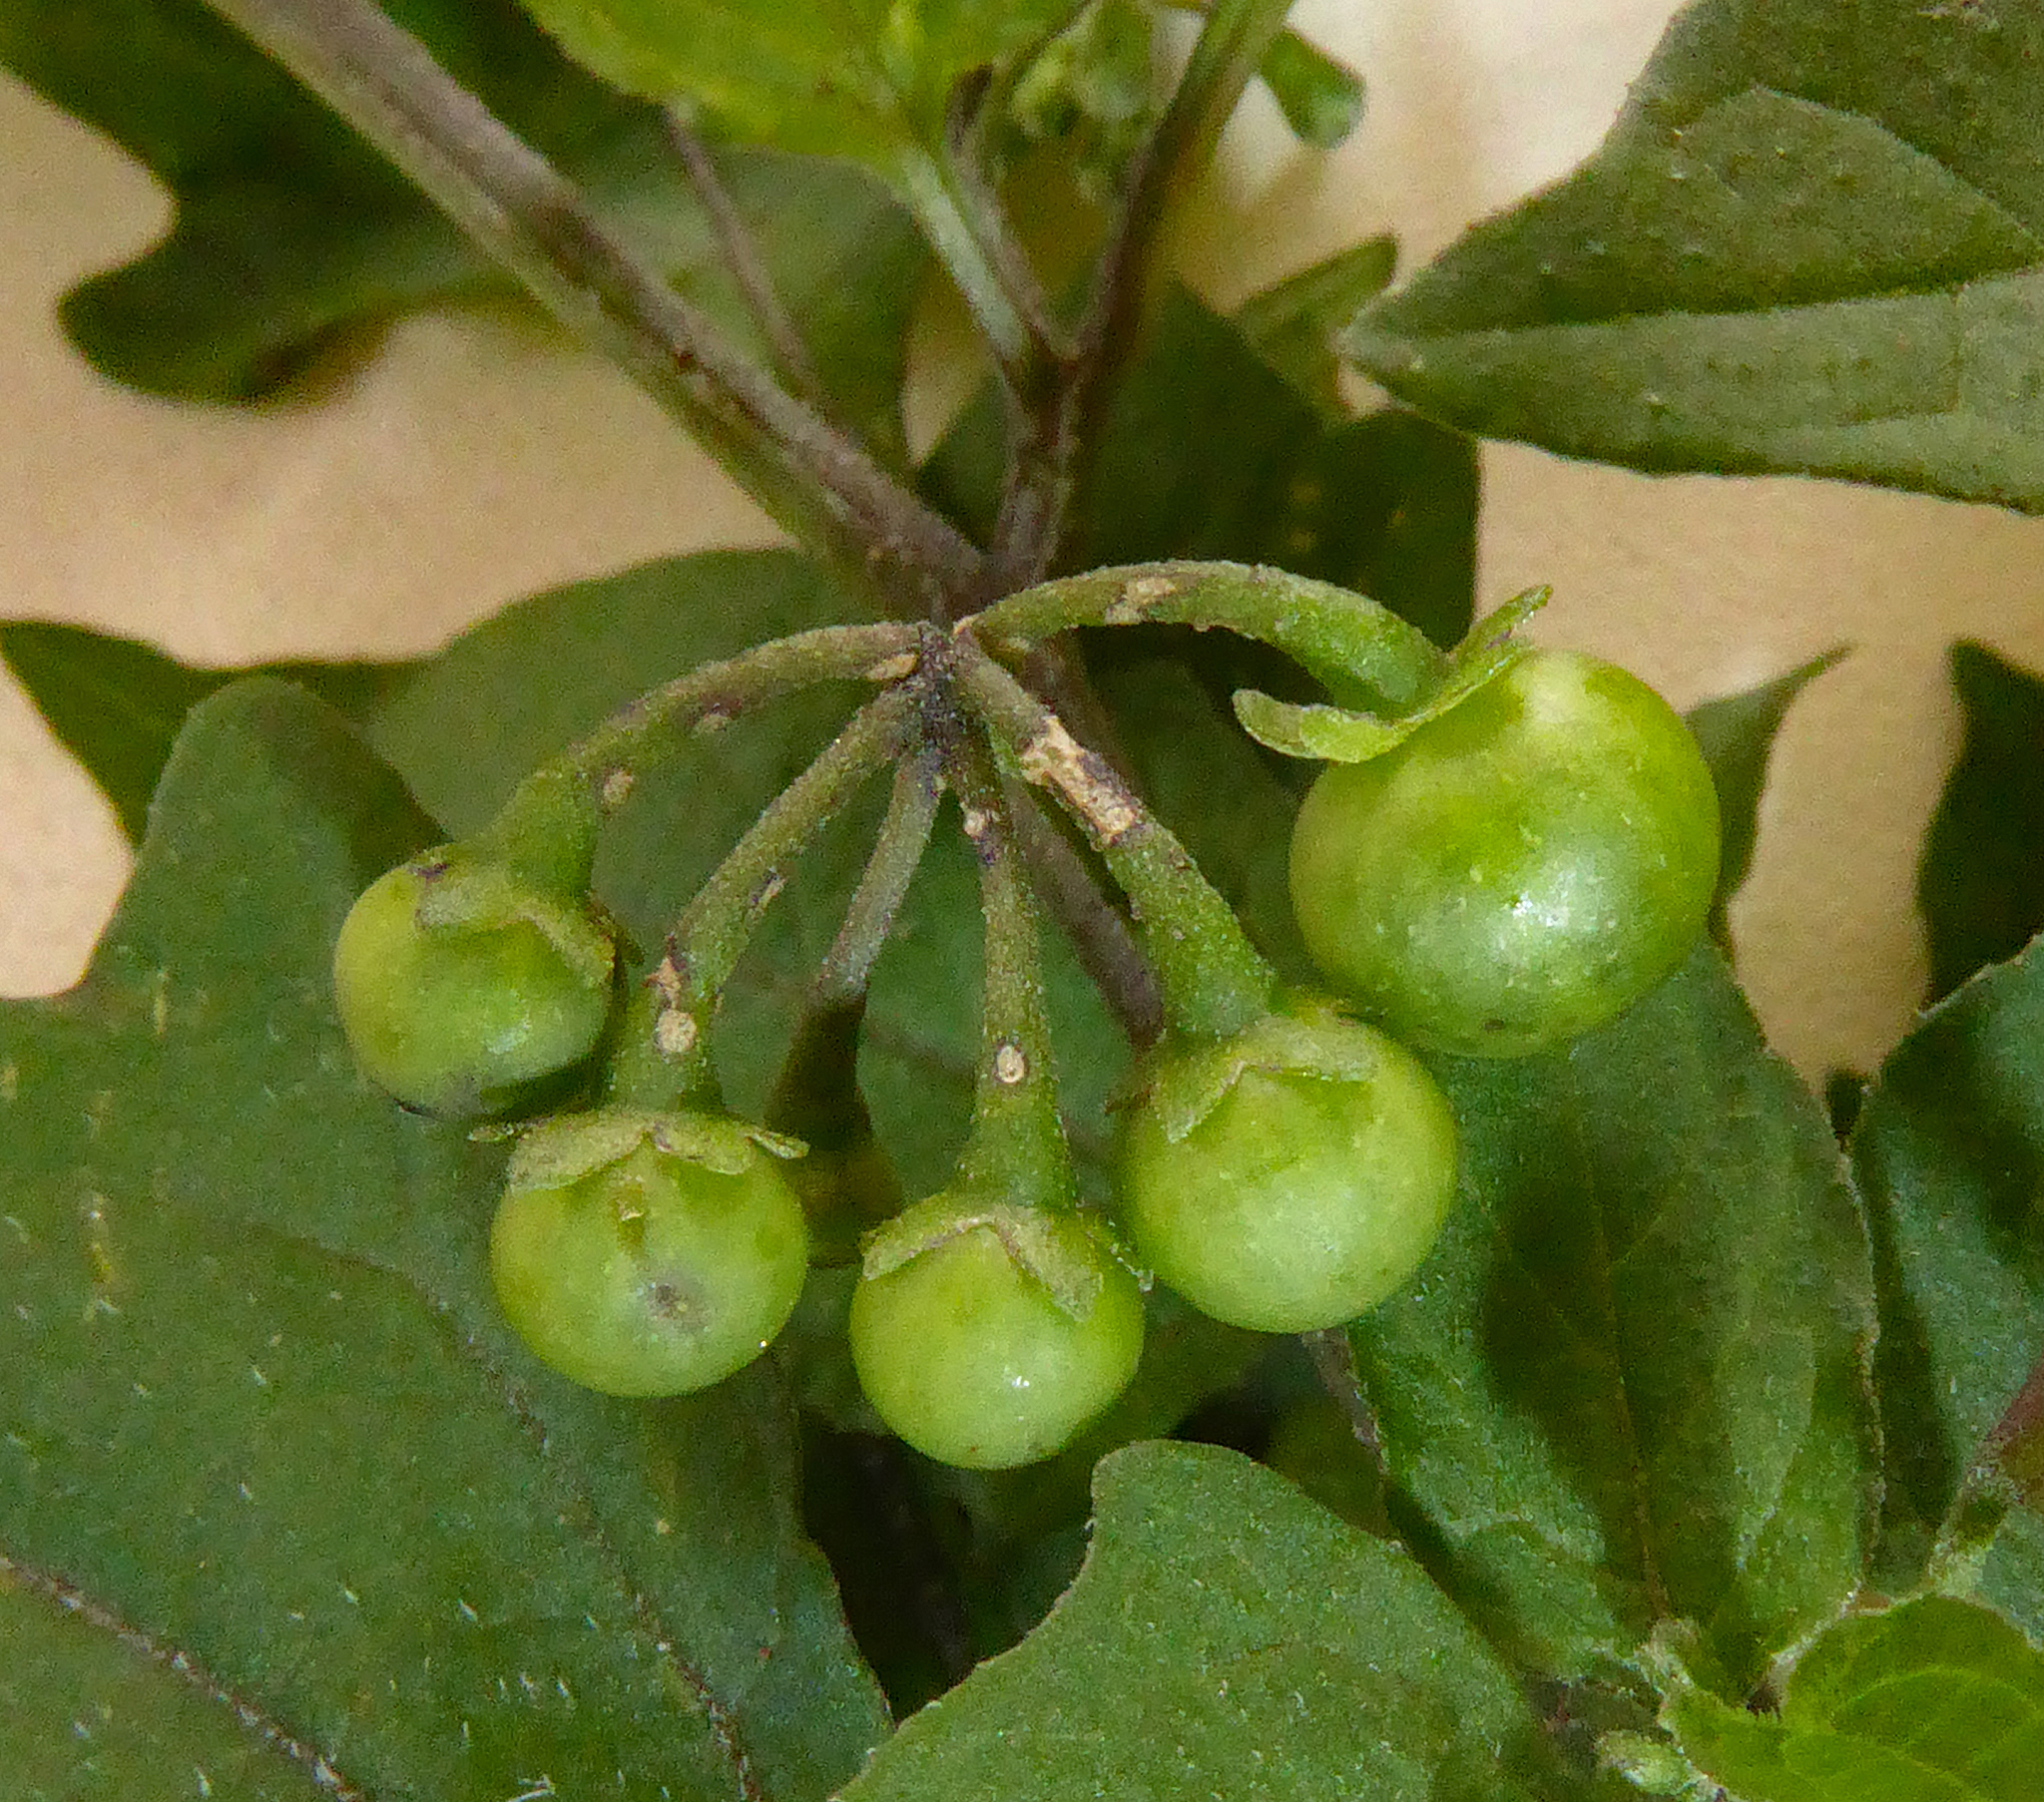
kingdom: Plantae
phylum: Tracheophyta
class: Magnoliopsida
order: Solanales
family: Solanaceae
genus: Solanum
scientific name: Solanum opacum
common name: Green-berry nightshade
